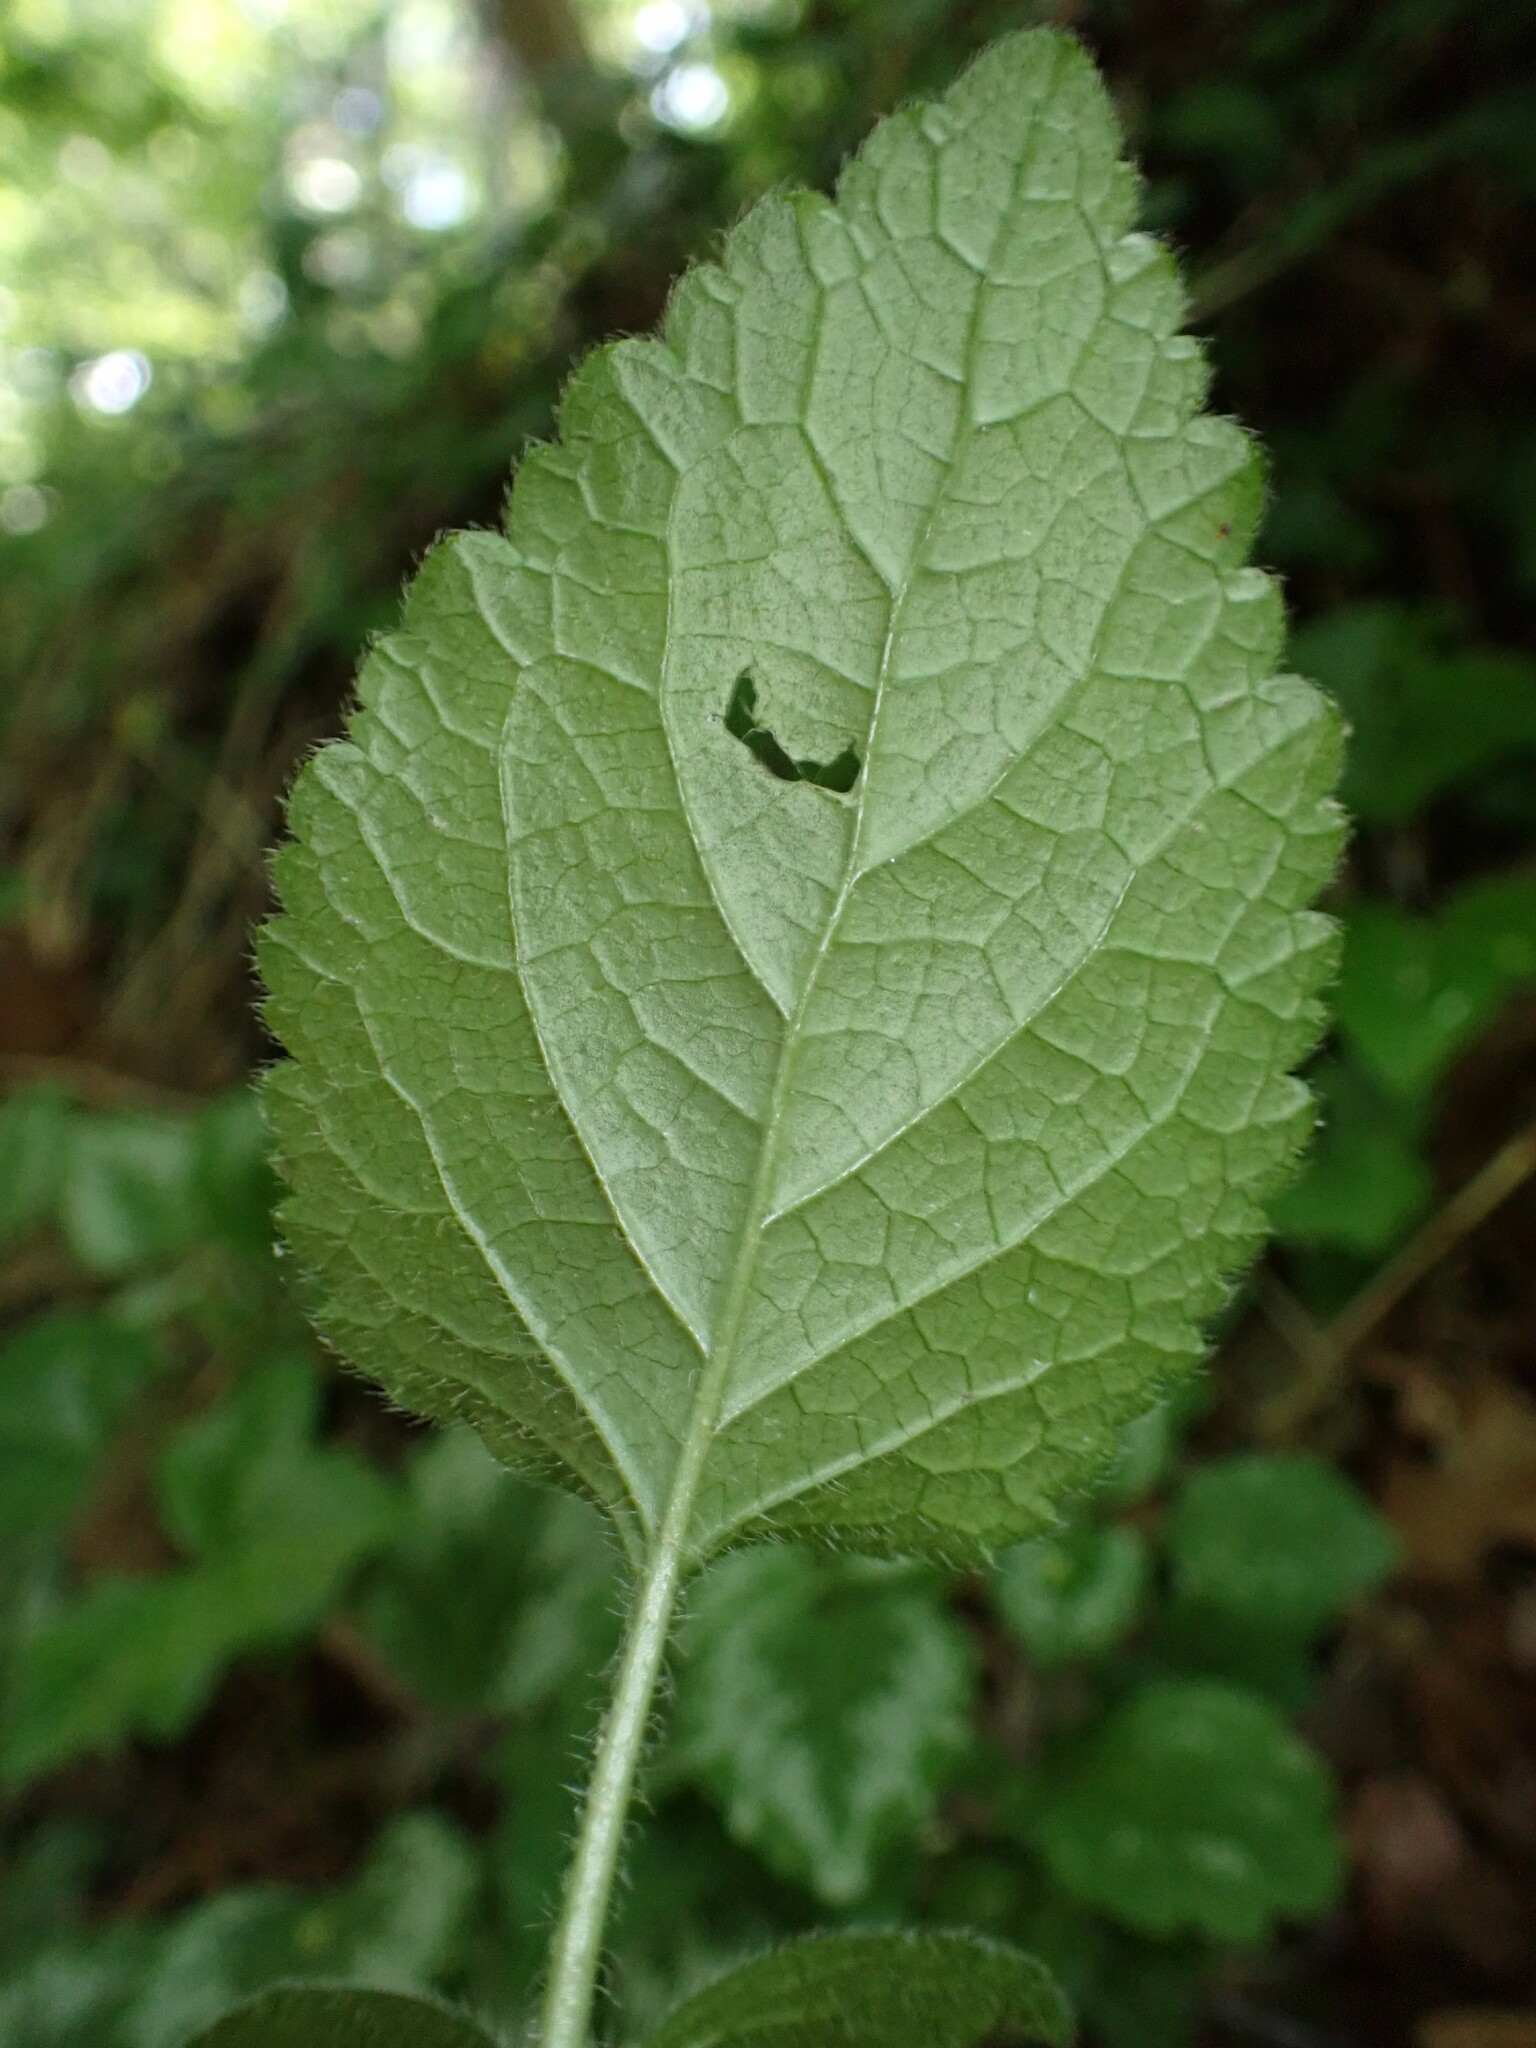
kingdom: Plantae
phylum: Tracheophyta
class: Magnoliopsida
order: Lamiales
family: Lamiaceae
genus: Lamium
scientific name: Lamium galeobdolon
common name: Yellow archangel
